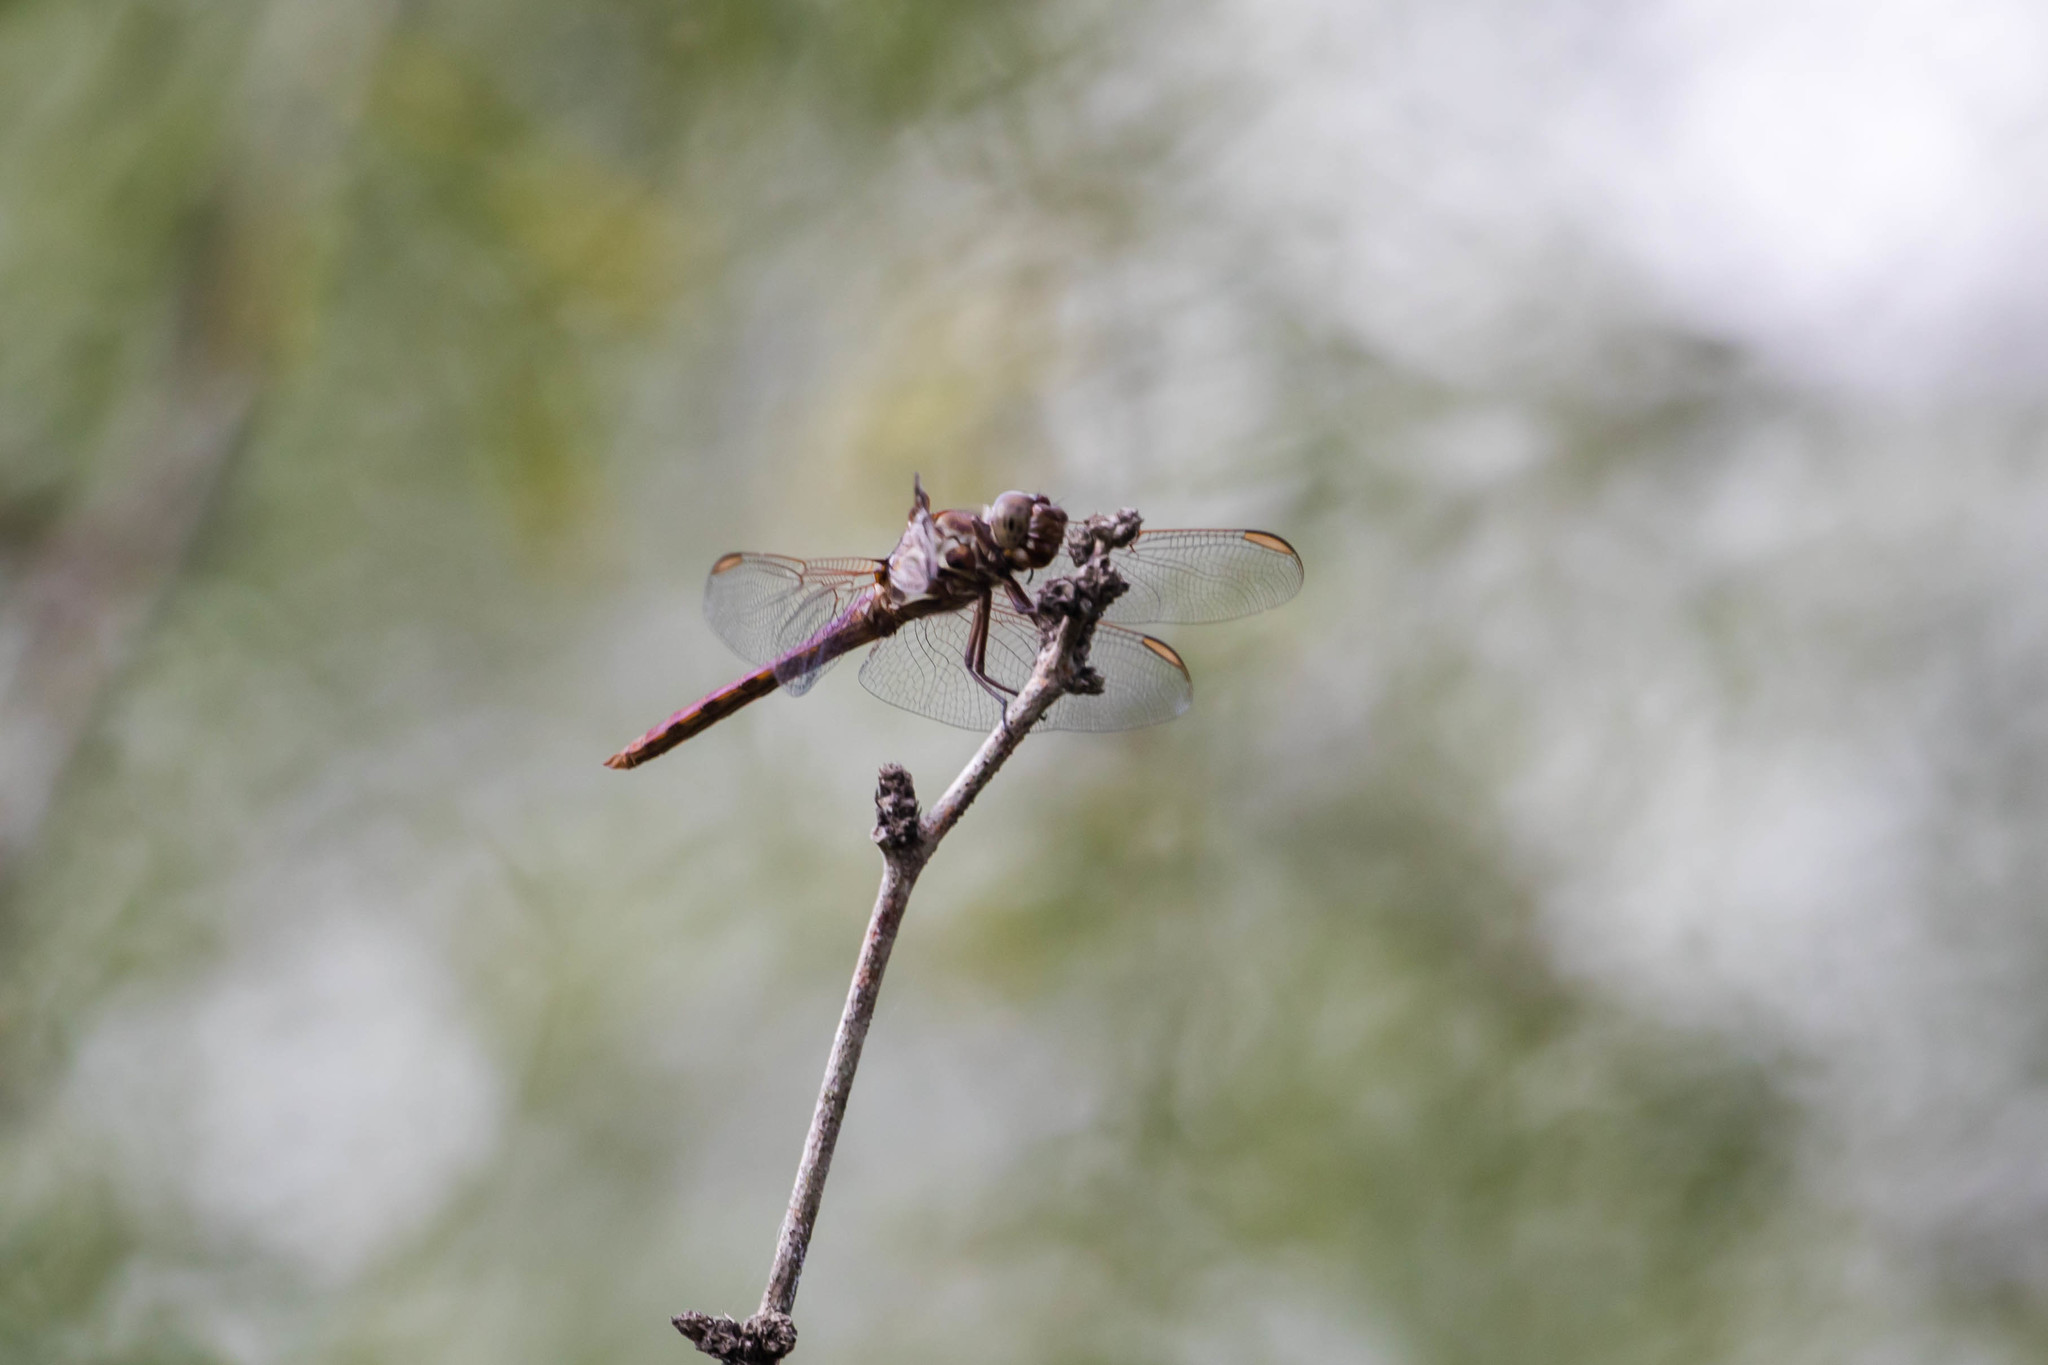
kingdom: Animalia
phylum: Arthropoda
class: Insecta
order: Odonata
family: Libellulidae
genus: Orthemis
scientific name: Orthemis ferruginea
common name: Roseate skimmer
